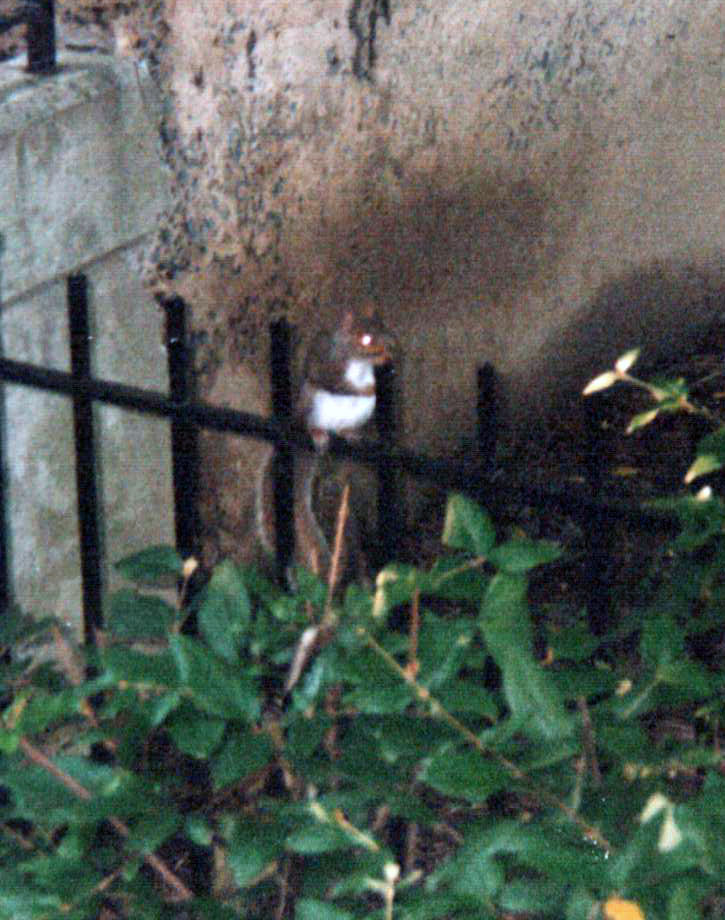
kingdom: Animalia
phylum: Chordata
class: Mammalia
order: Rodentia
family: Sciuridae
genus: Sciurus
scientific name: Sciurus carolinensis
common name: Eastern gray squirrel
